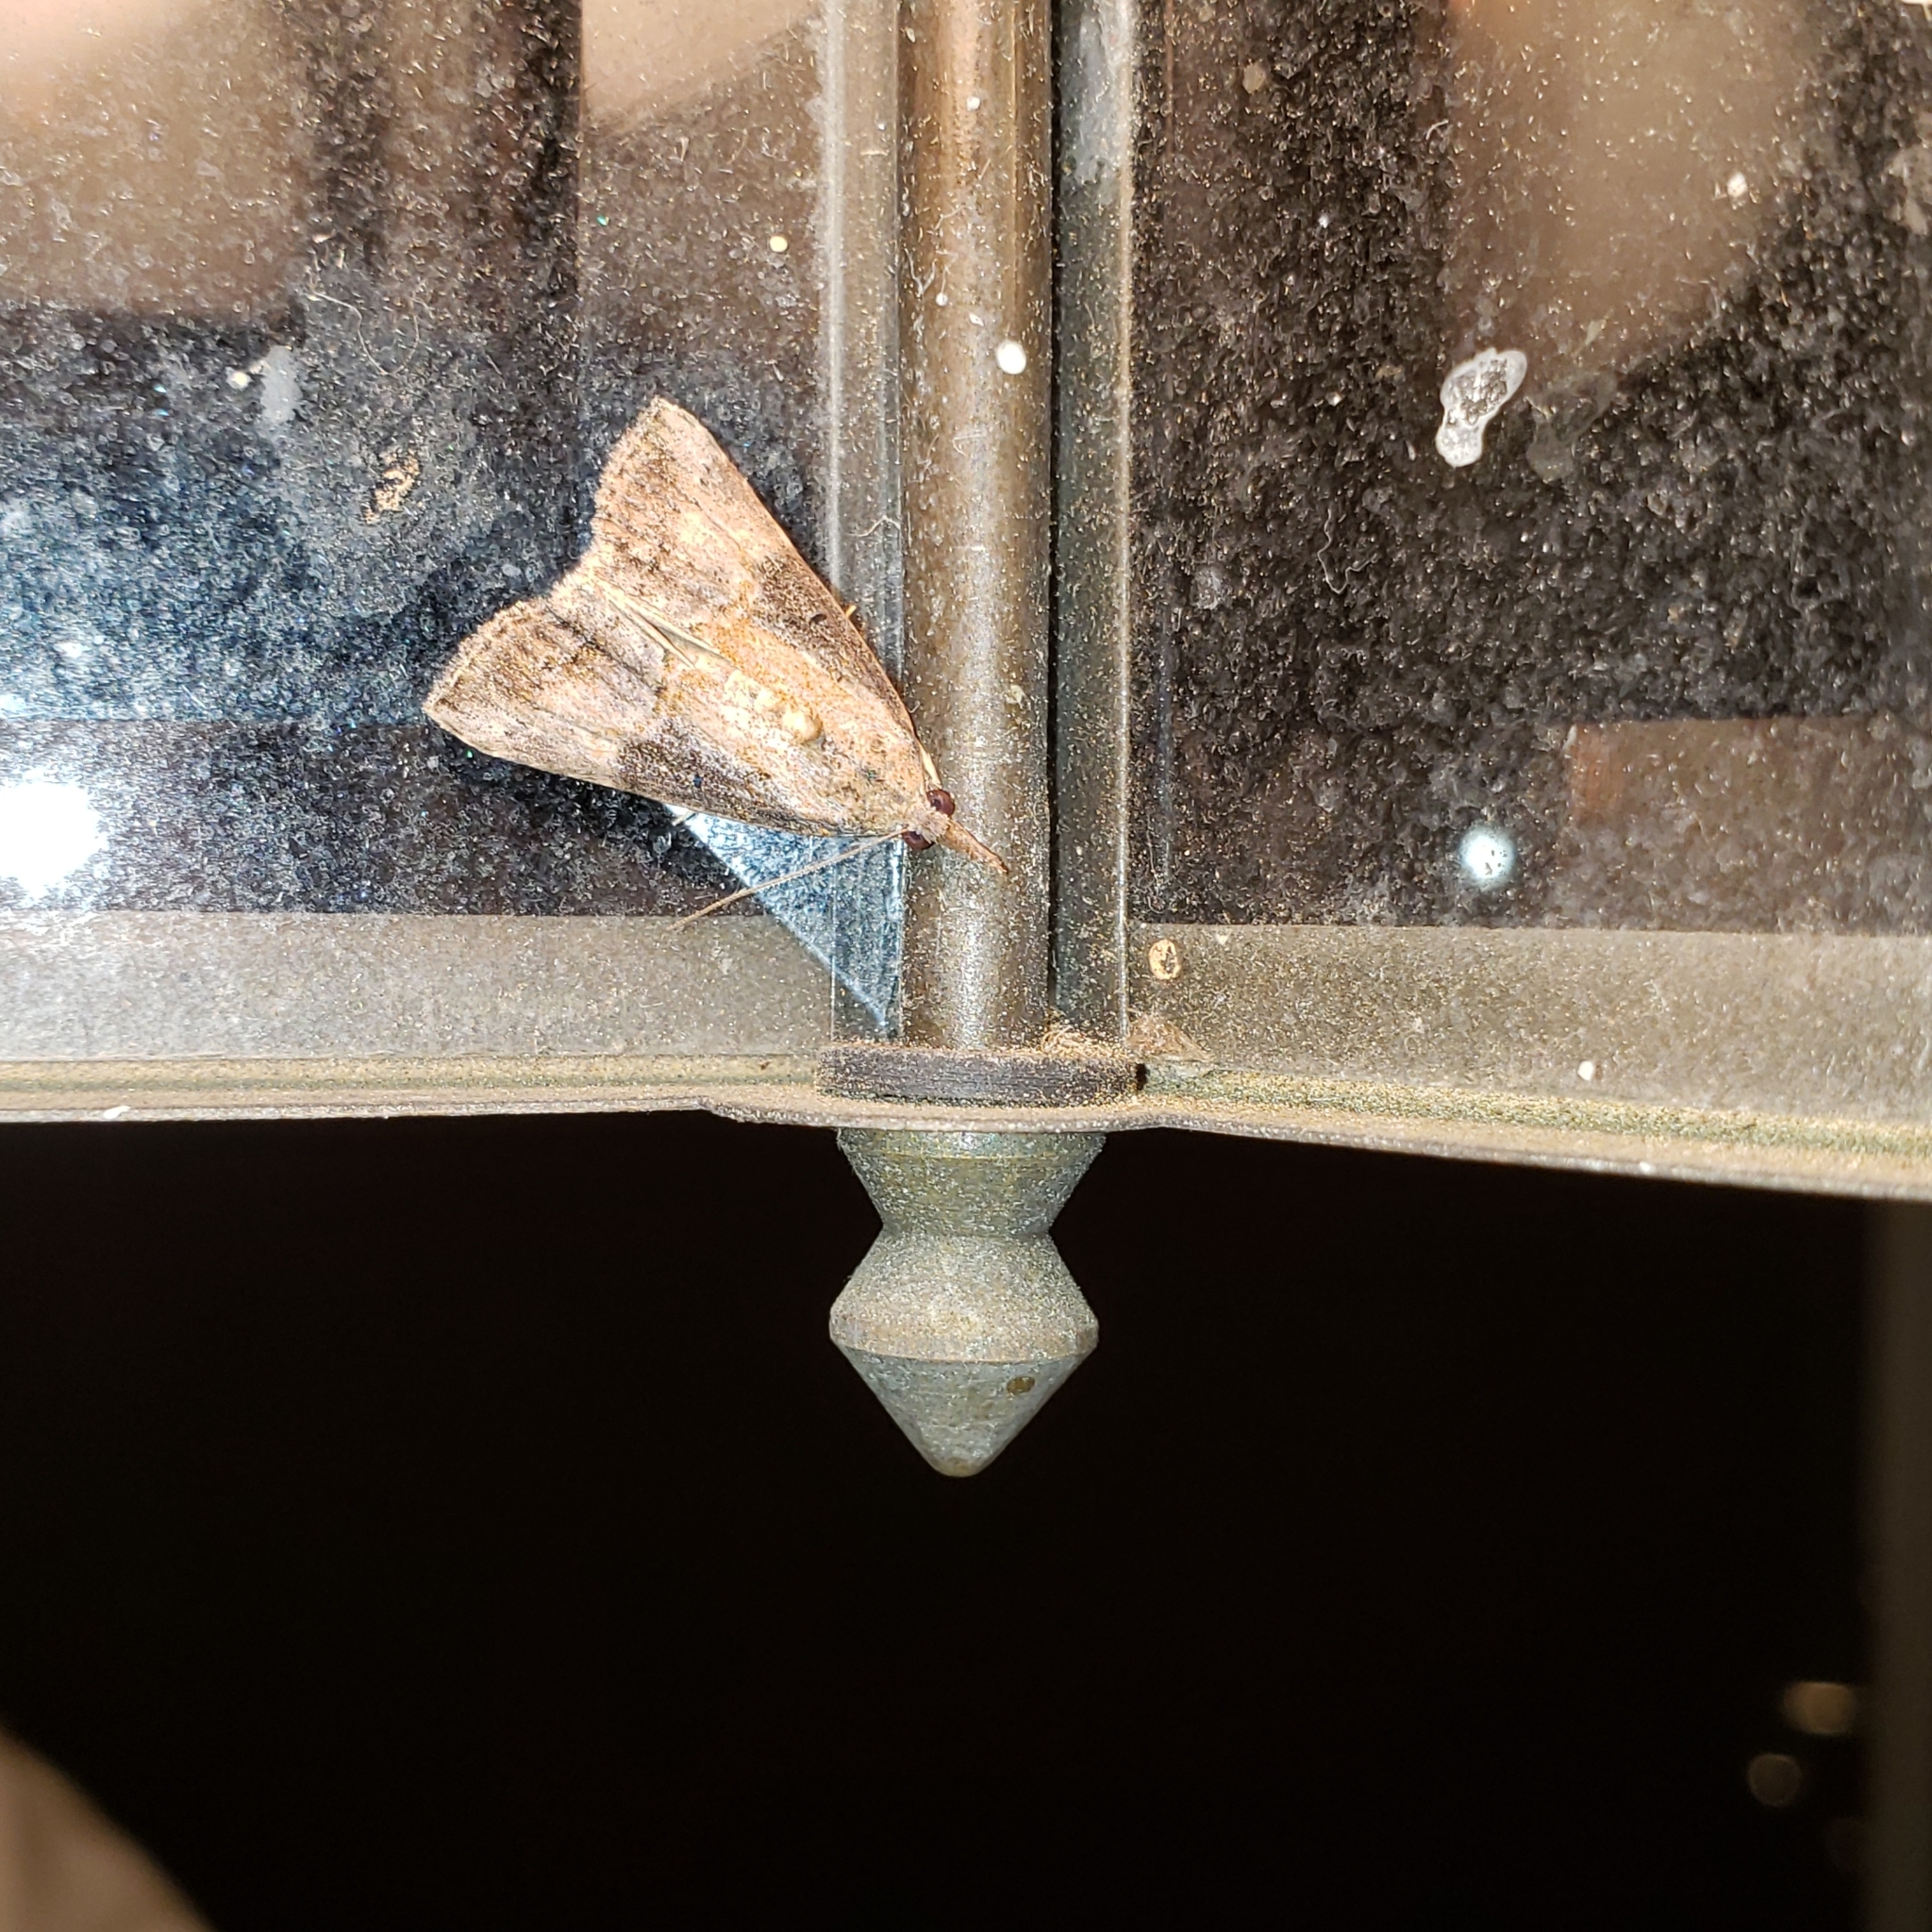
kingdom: Animalia
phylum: Arthropoda
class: Insecta
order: Lepidoptera
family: Erebidae
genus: Hypena
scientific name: Hypena scabra
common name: Green cloverworm
